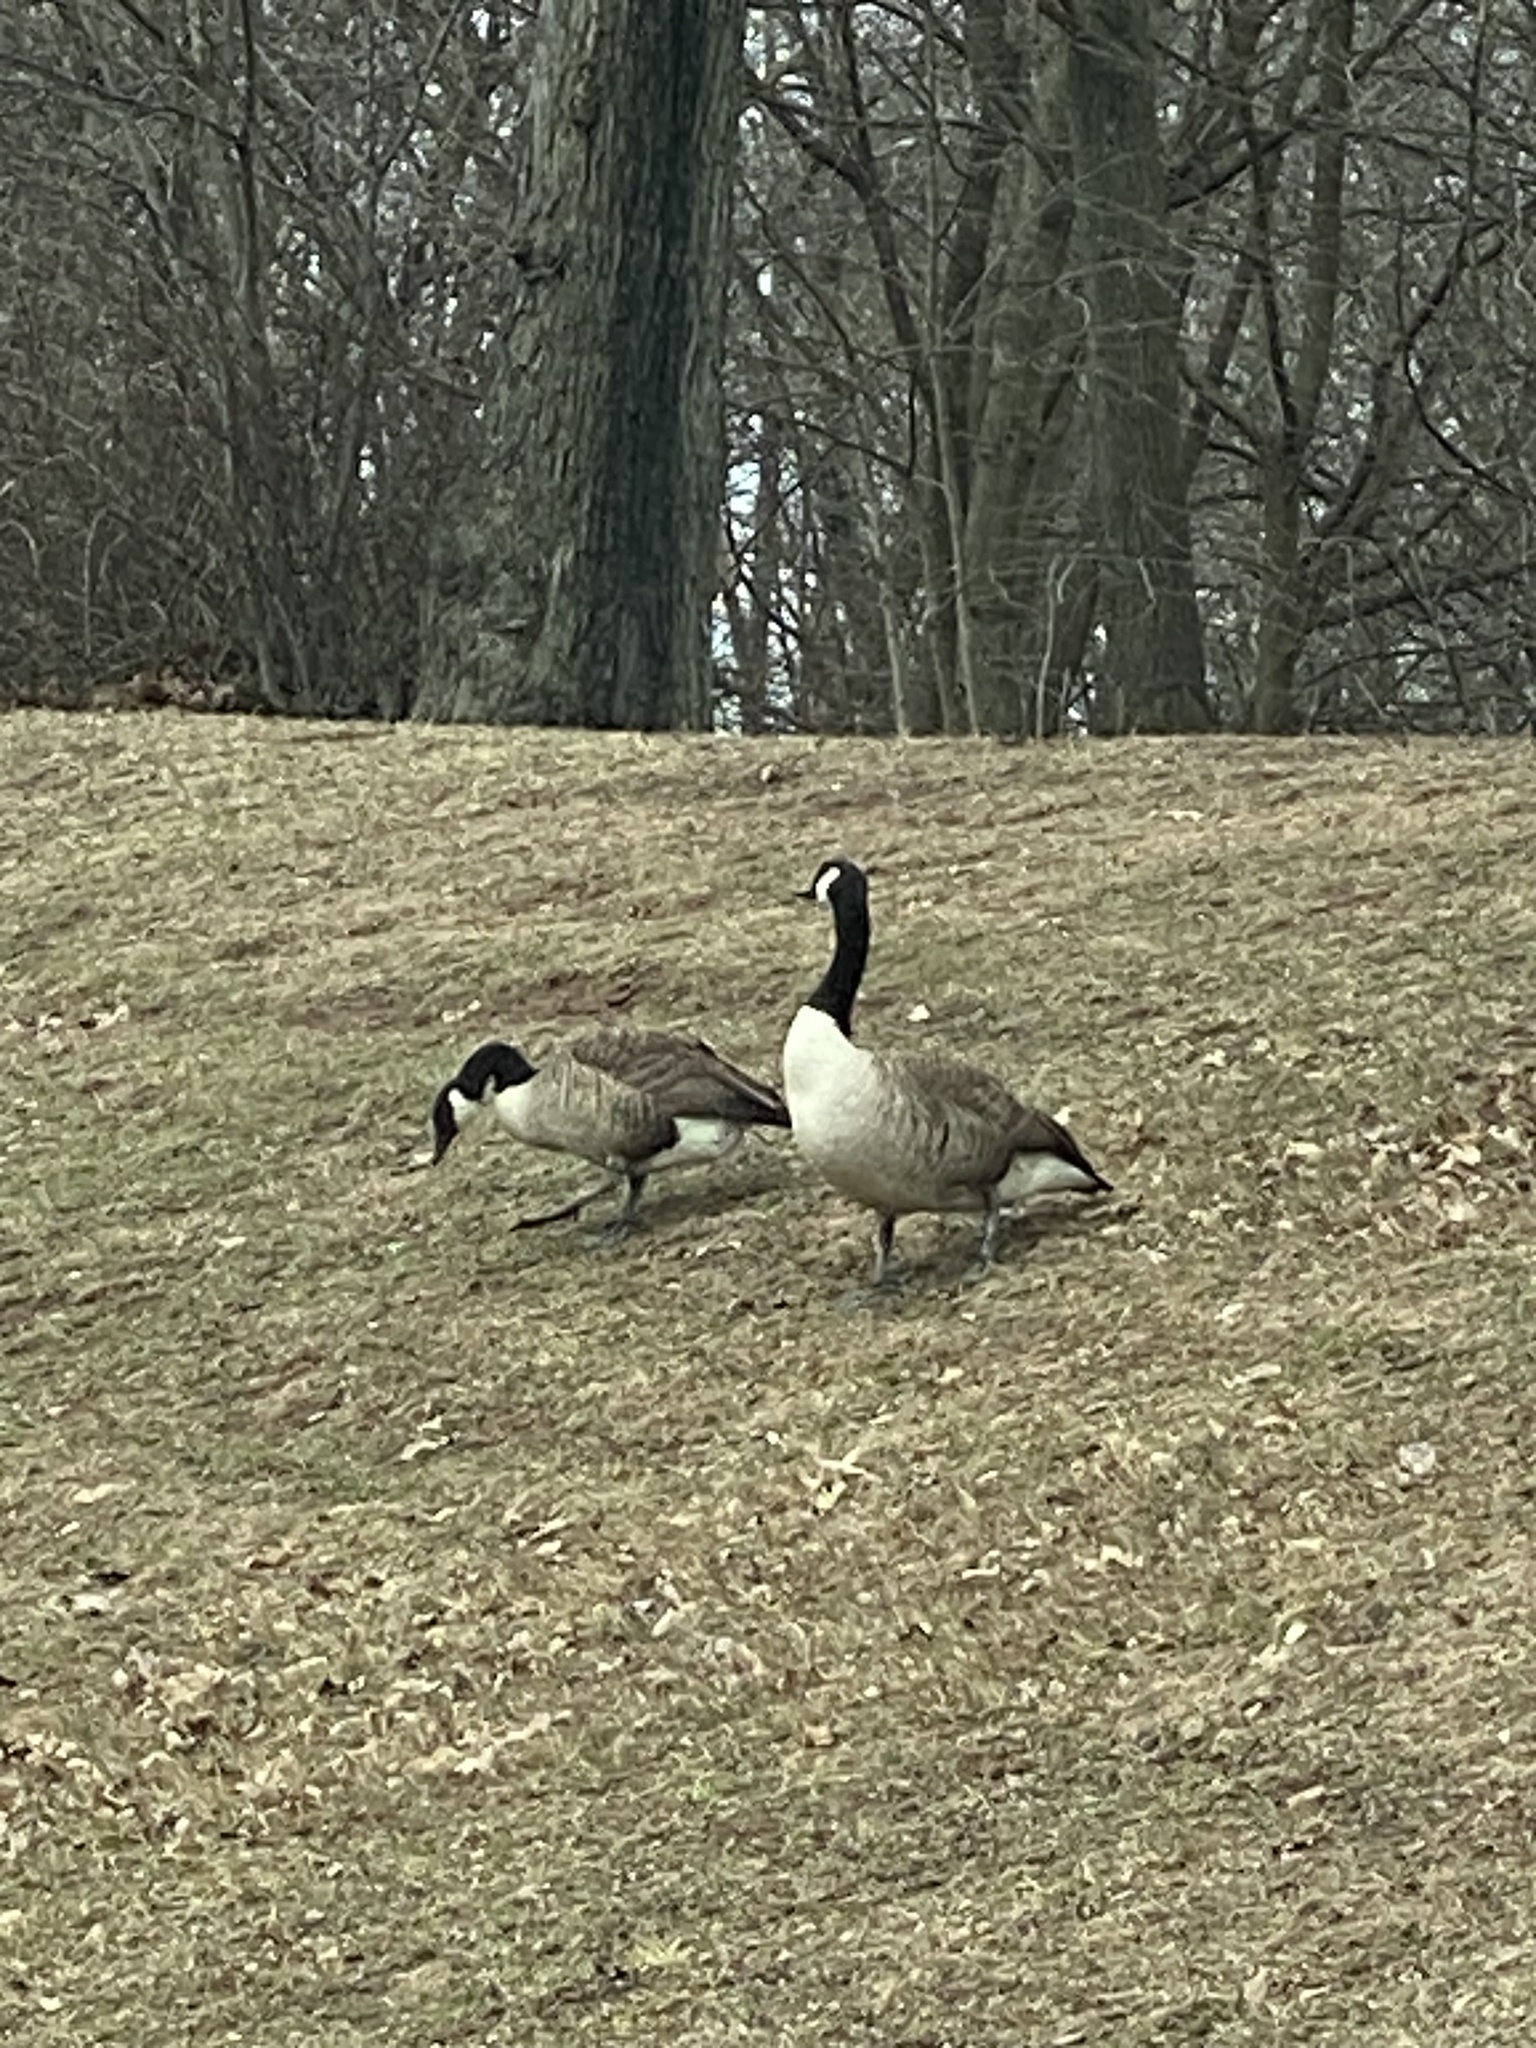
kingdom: Animalia
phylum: Chordata
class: Aves
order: Anseriformes
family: Anatidae
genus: Branta
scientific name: Branta canadensis
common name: Canada goose
